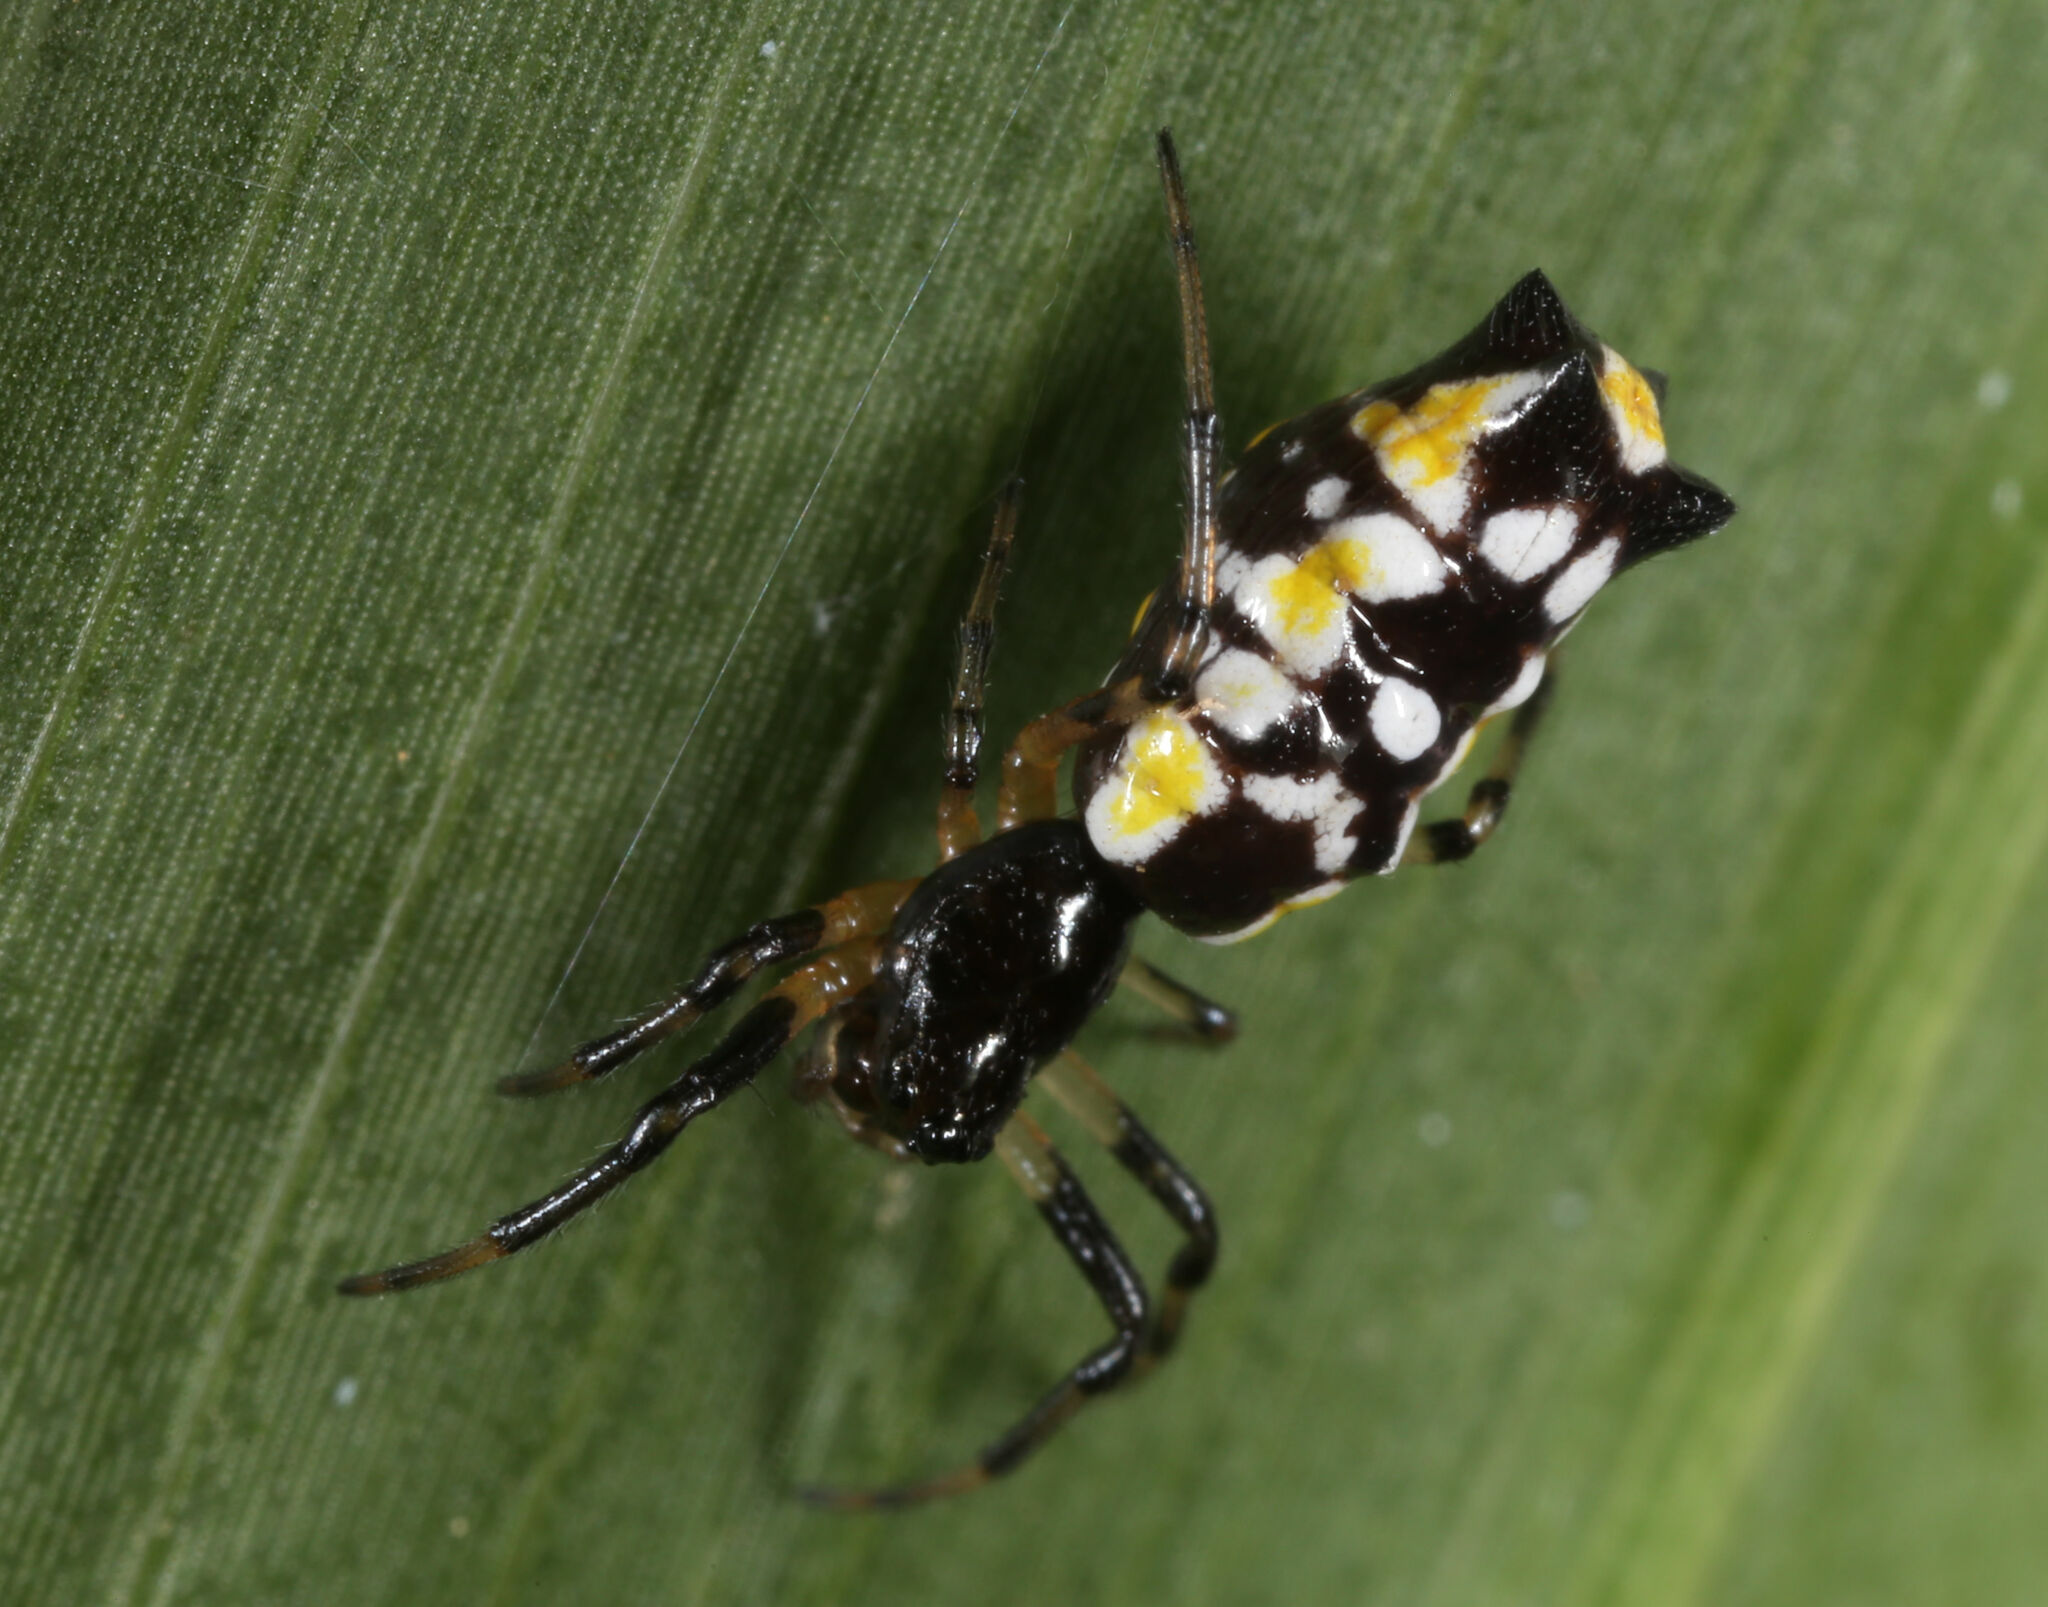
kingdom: Animalia
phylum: Arthropoda
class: Arachnida
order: Araneae
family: Araneidae
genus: Micrathena
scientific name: Micrathena funebris
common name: Orb weavers
